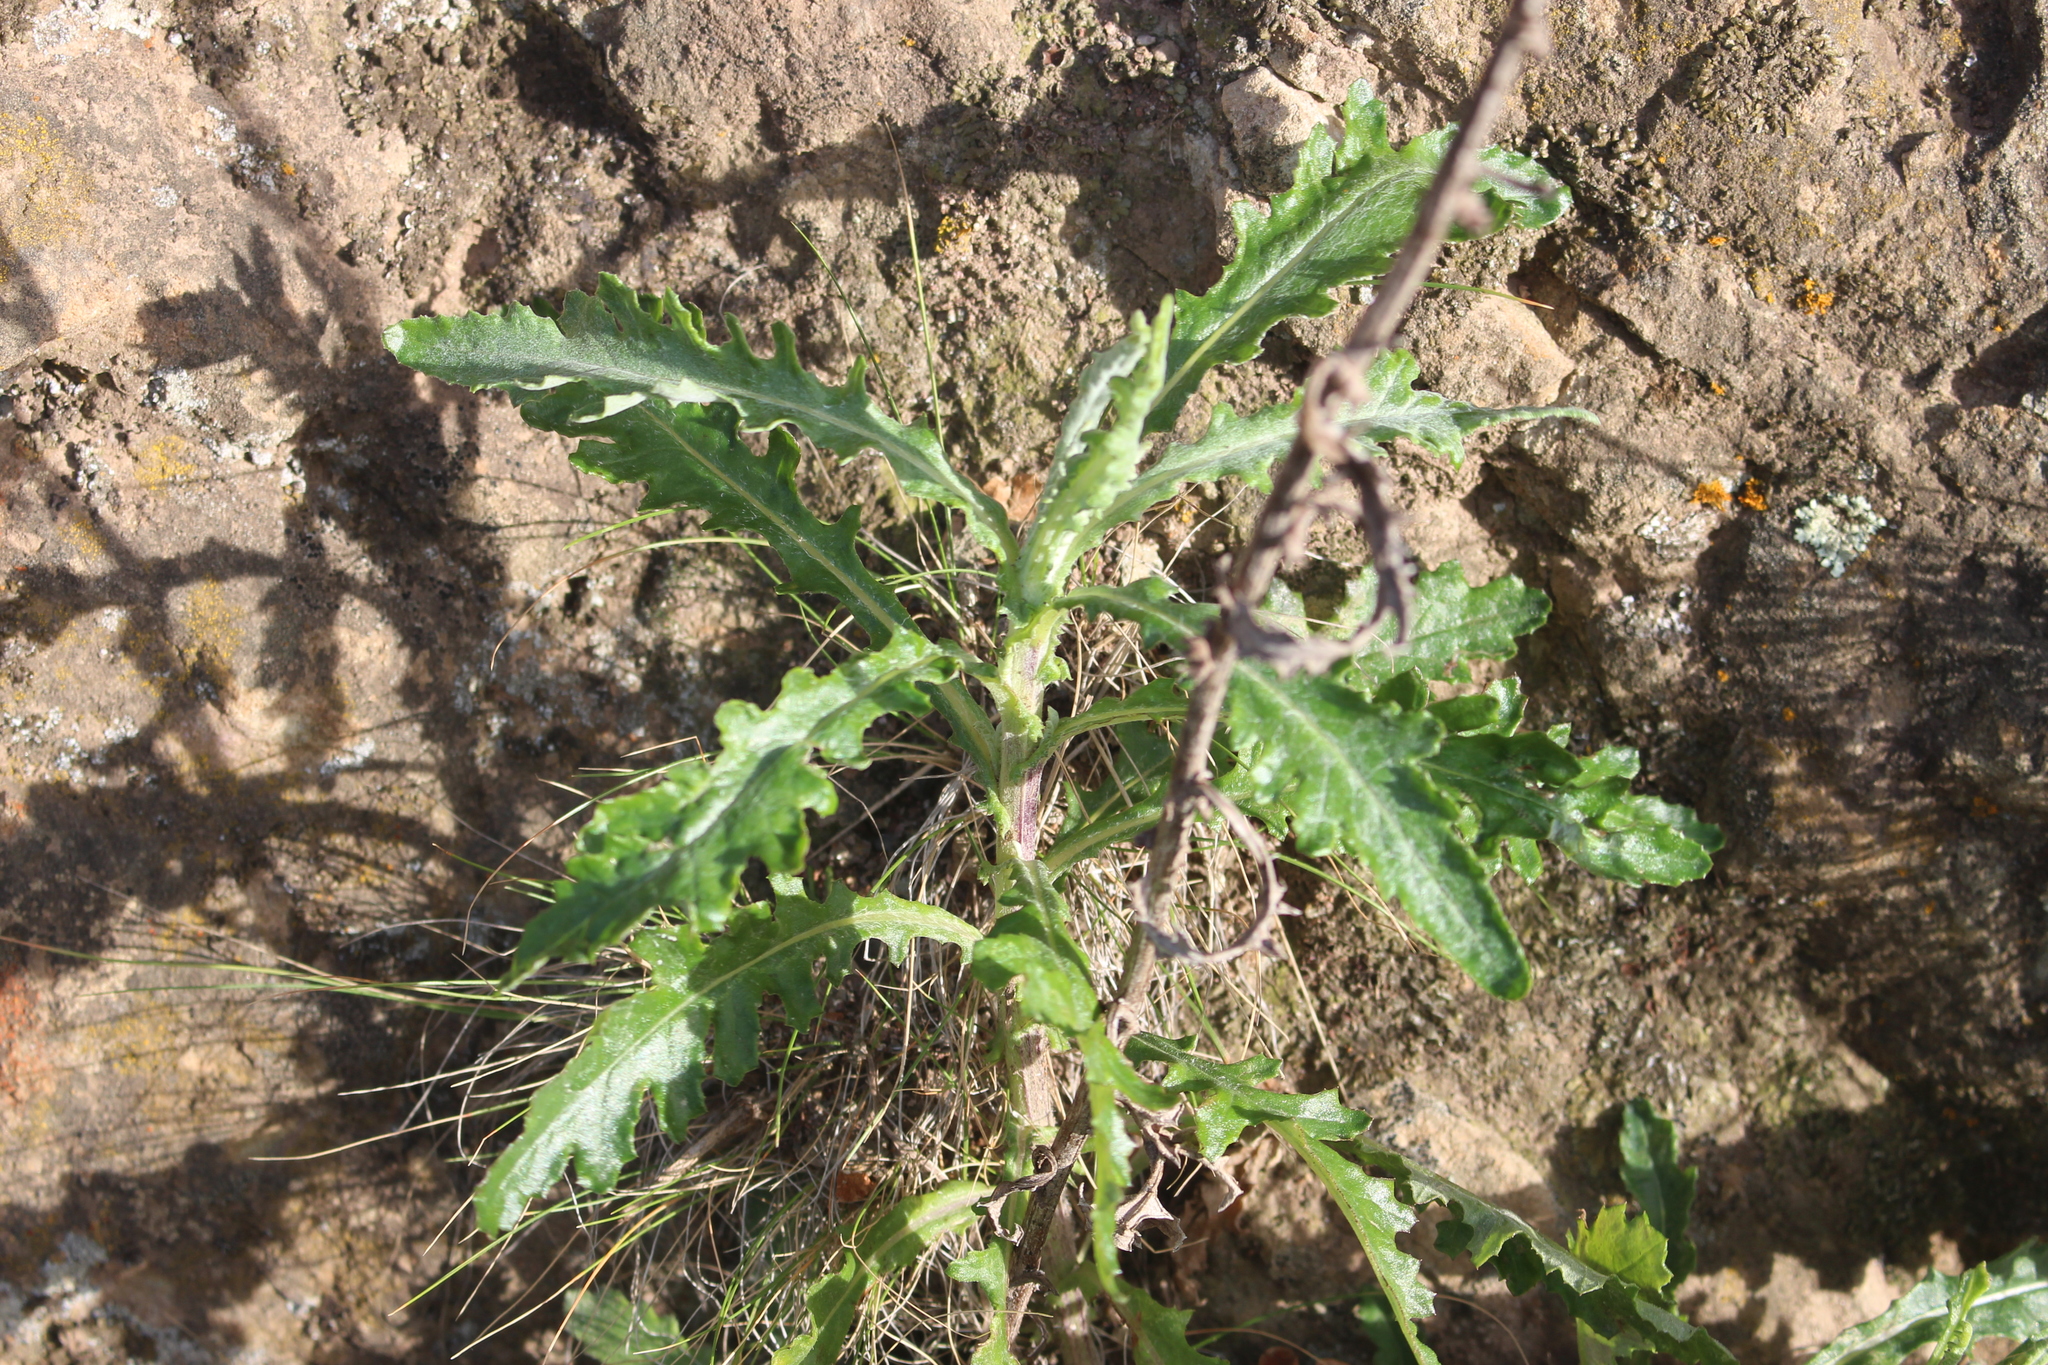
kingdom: Plantae
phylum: Tracheophyta
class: Magnoliopsida
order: Asterales
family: Asteraceae
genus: Senecio
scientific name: Senecio glomeratus
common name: Cutleaf burnweed
